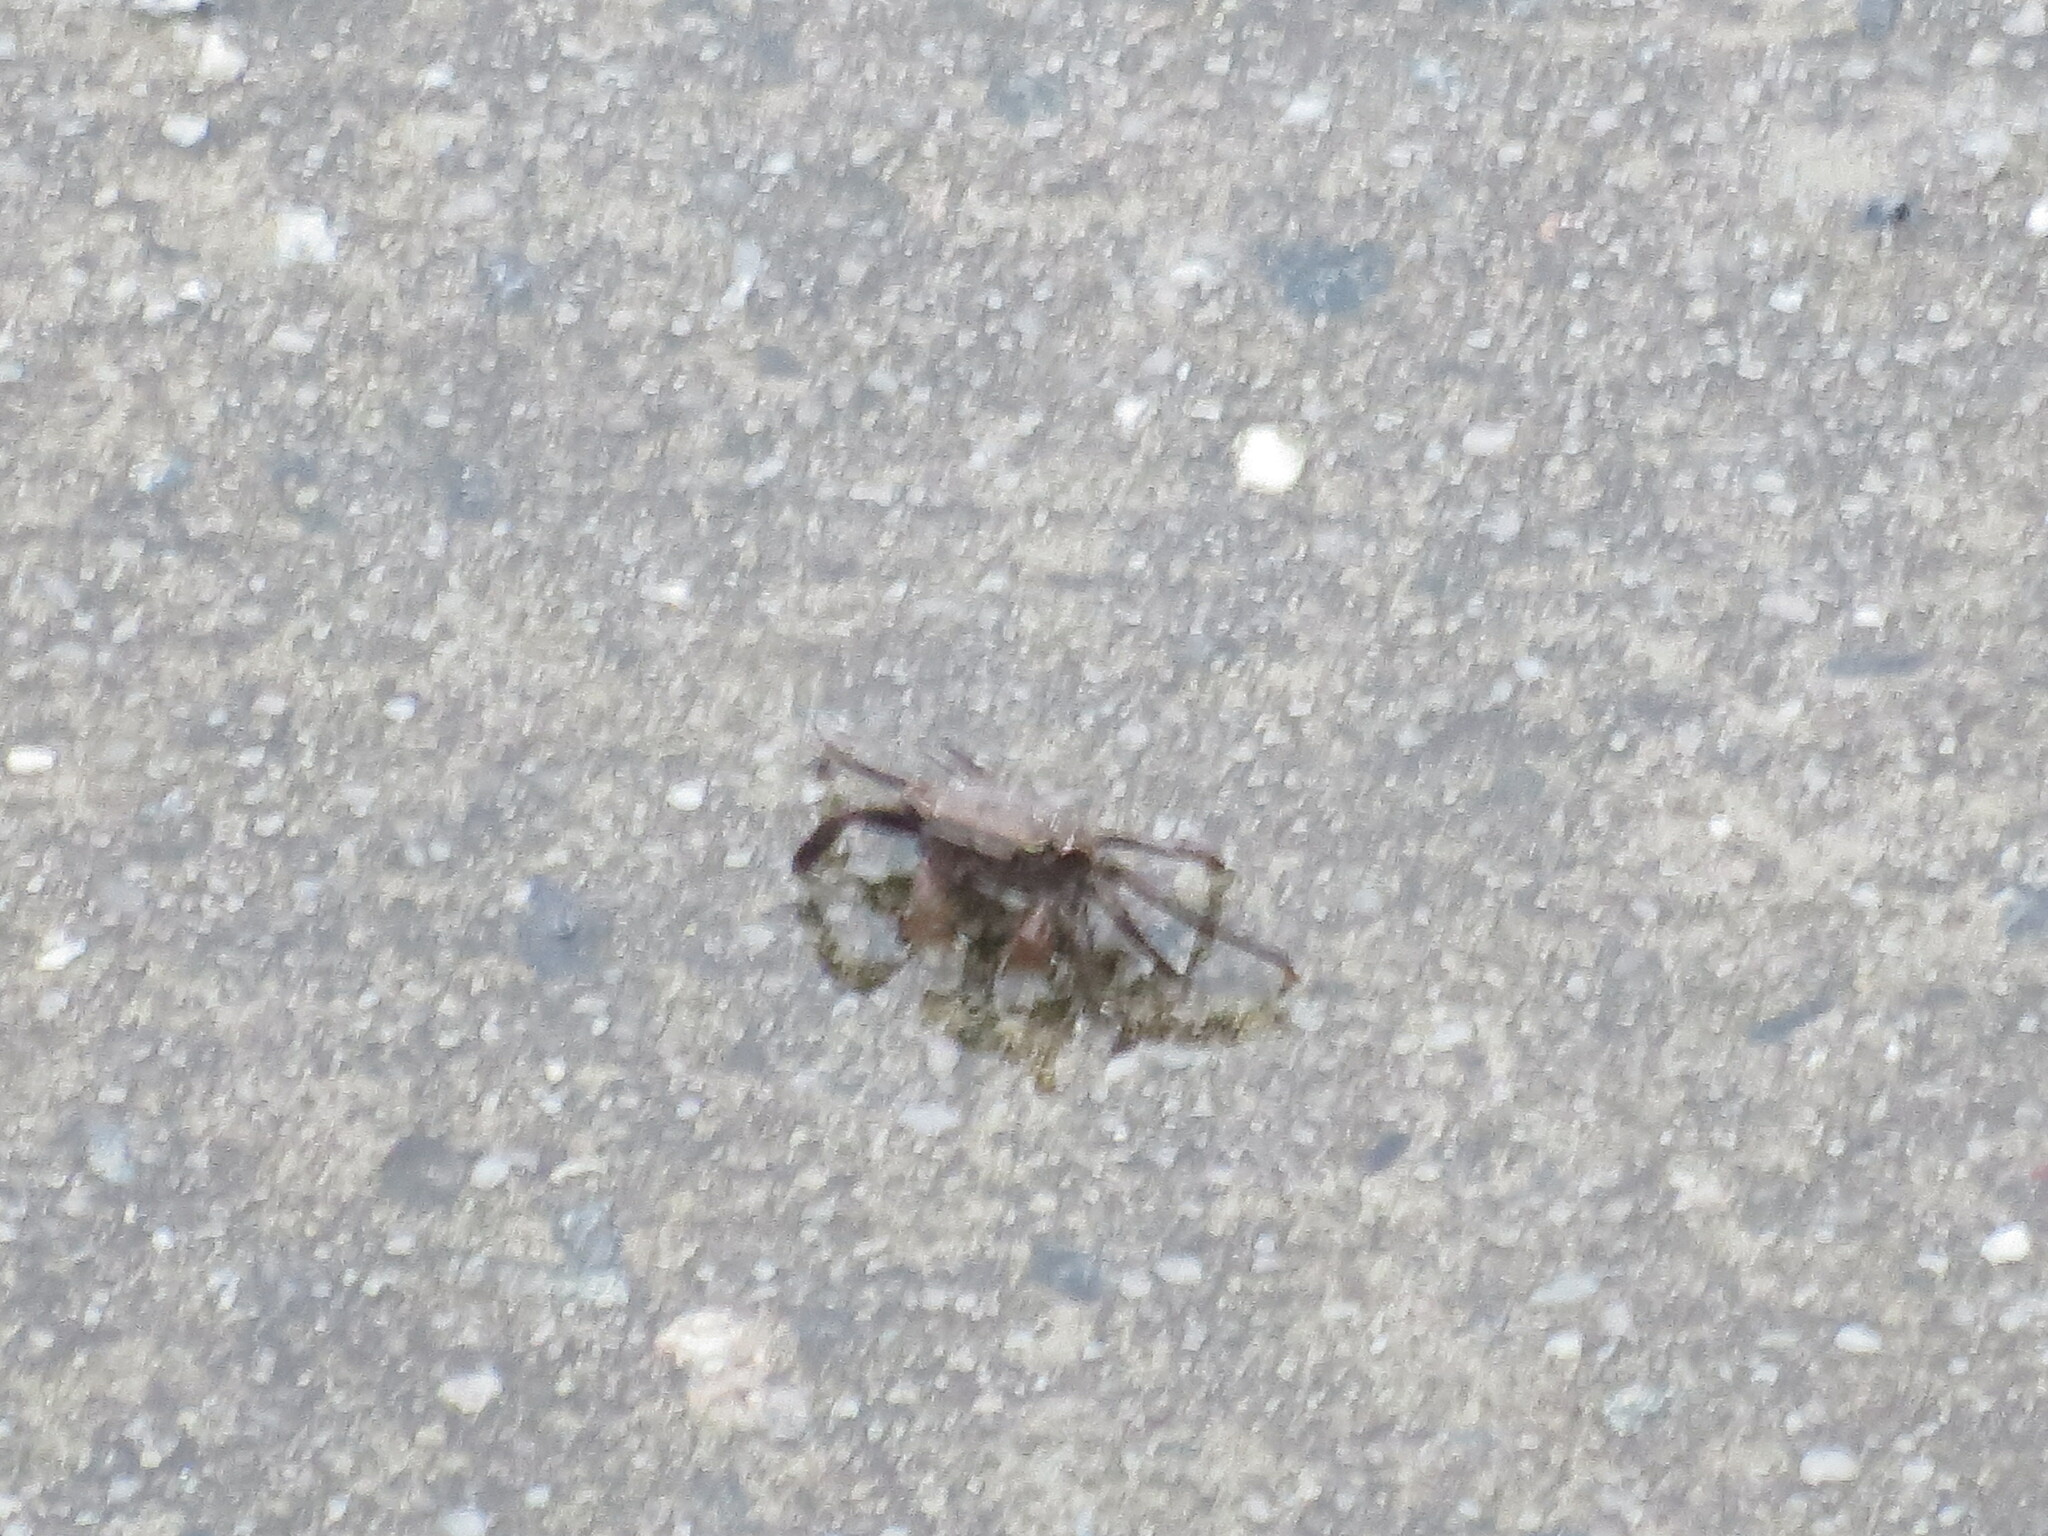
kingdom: Animalia
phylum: Arthropoda
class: Malacostraca
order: Decapoda
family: Sesarmidae
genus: Armases
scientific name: Armases cinereum
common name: Squareback marsh crab
